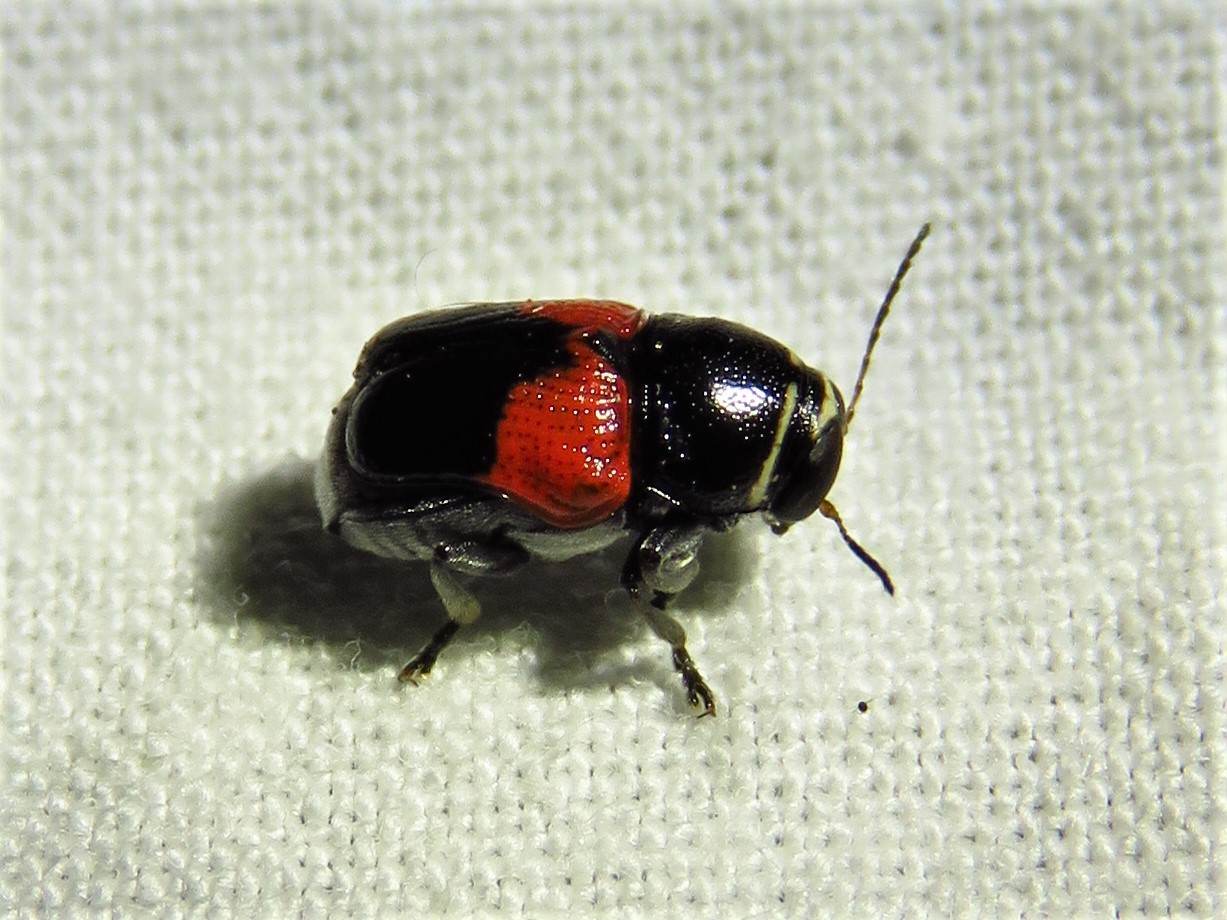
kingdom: Animalia
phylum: Arthropoda
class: Insecta
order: Coleoptera
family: Chrysomelidae
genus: Scelolyperus
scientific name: Scelolyperus lecontii
